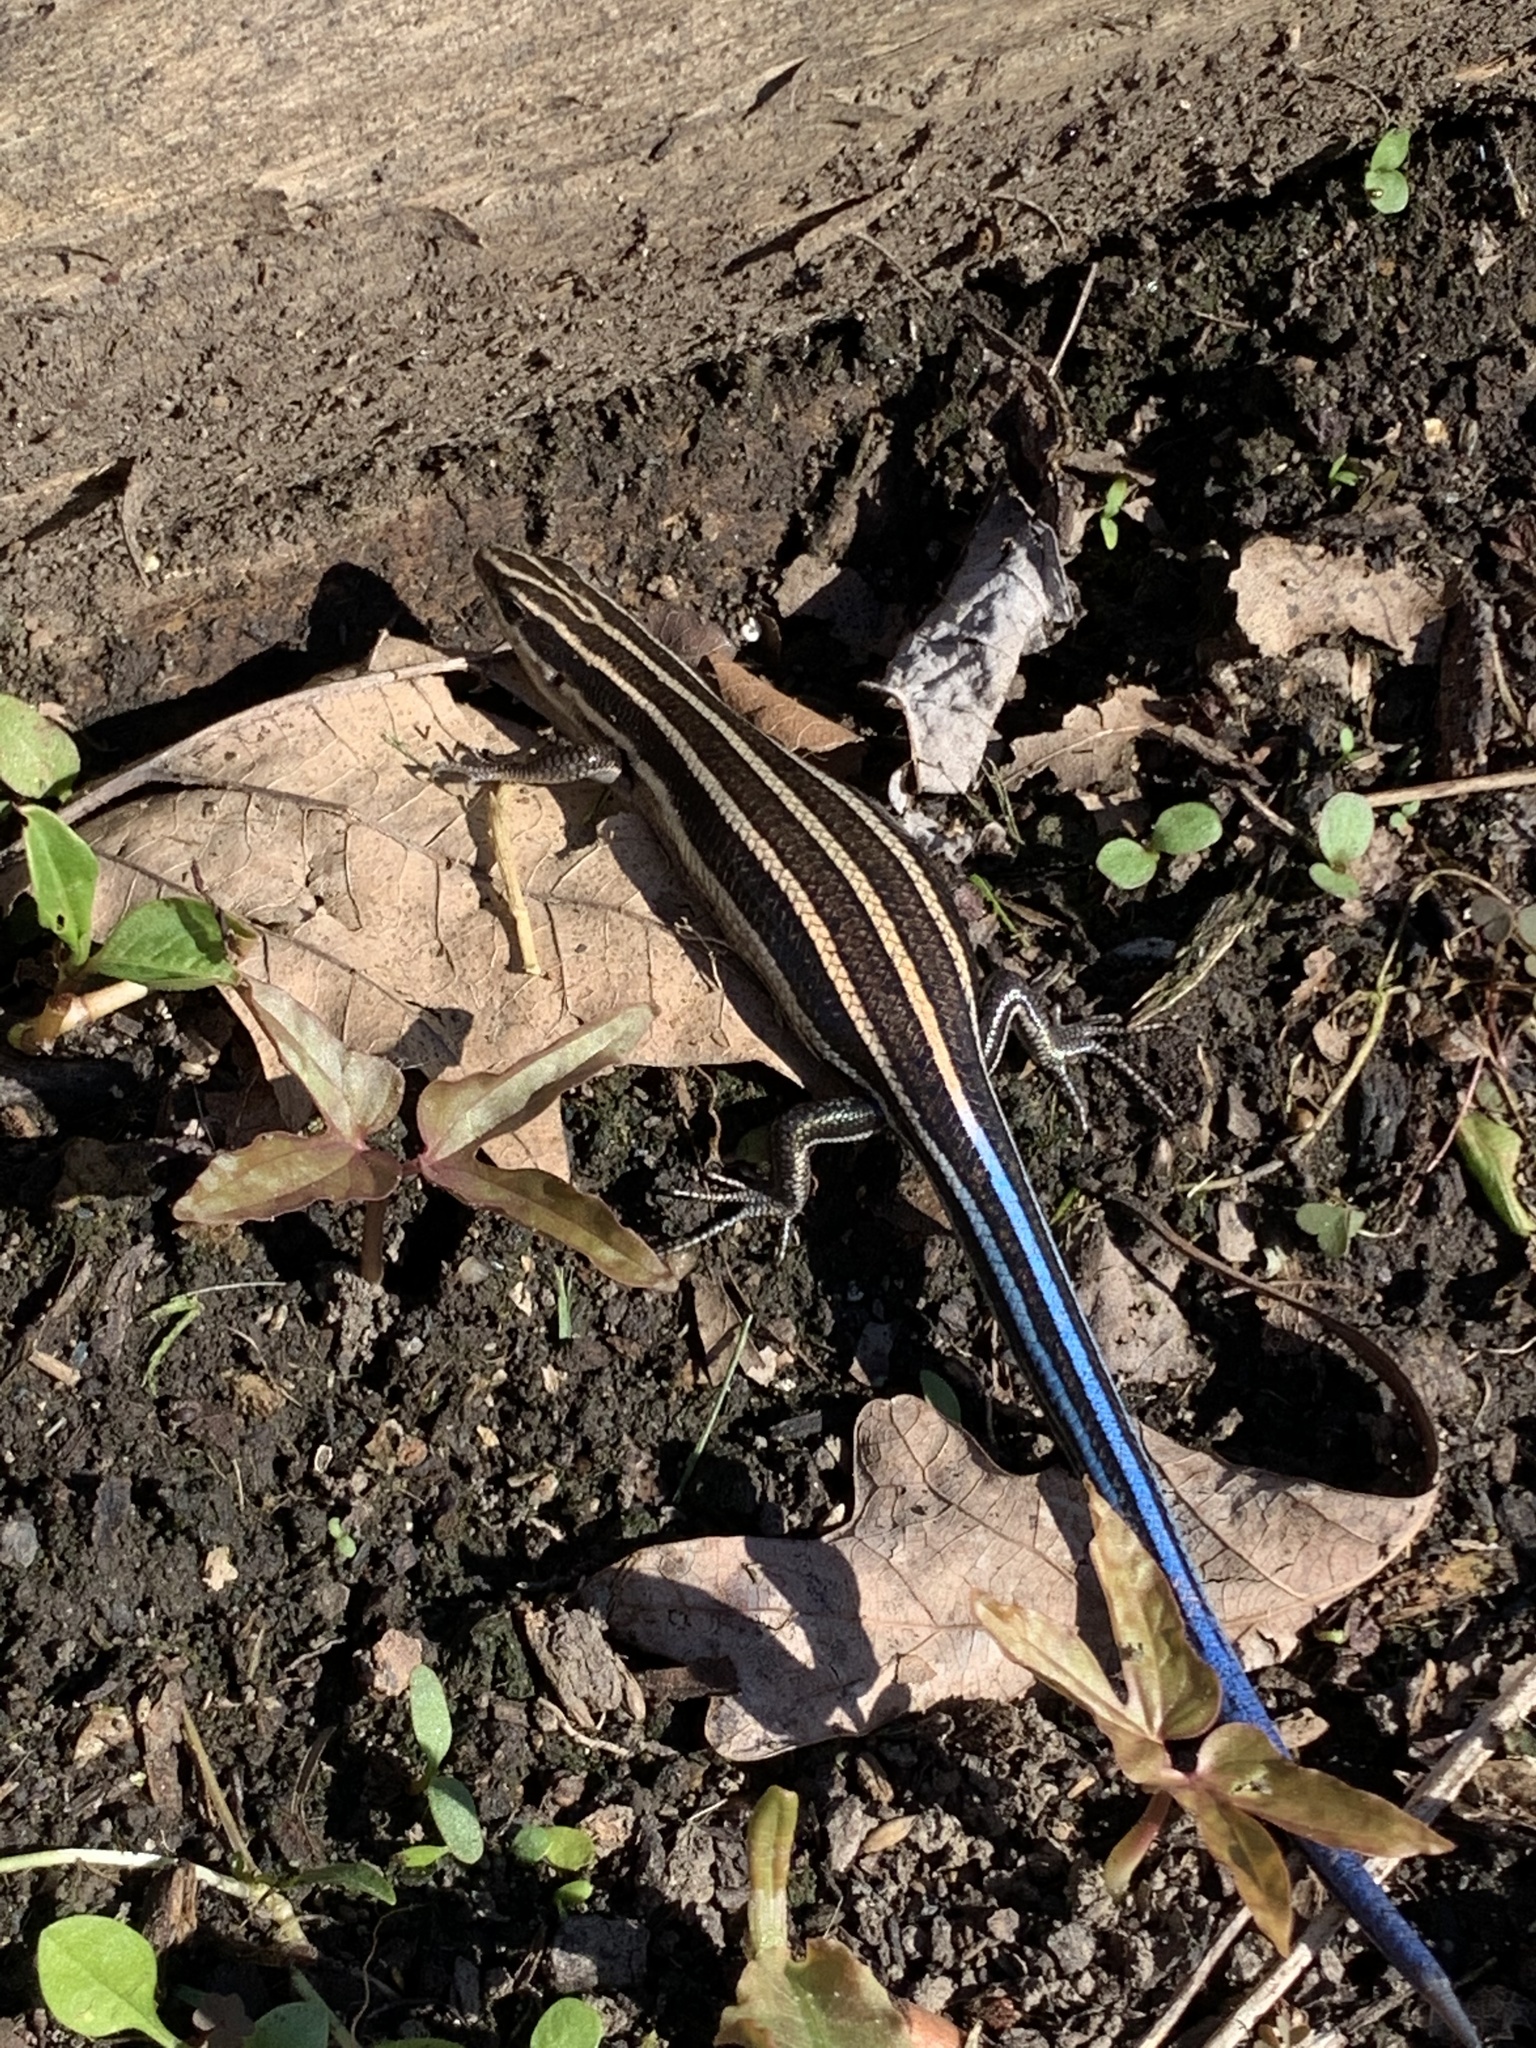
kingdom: Animalia
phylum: Chordata
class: Squamata
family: Scincidae
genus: Plestiodon
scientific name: Plestiodon fasciatus
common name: Five-lined skink
